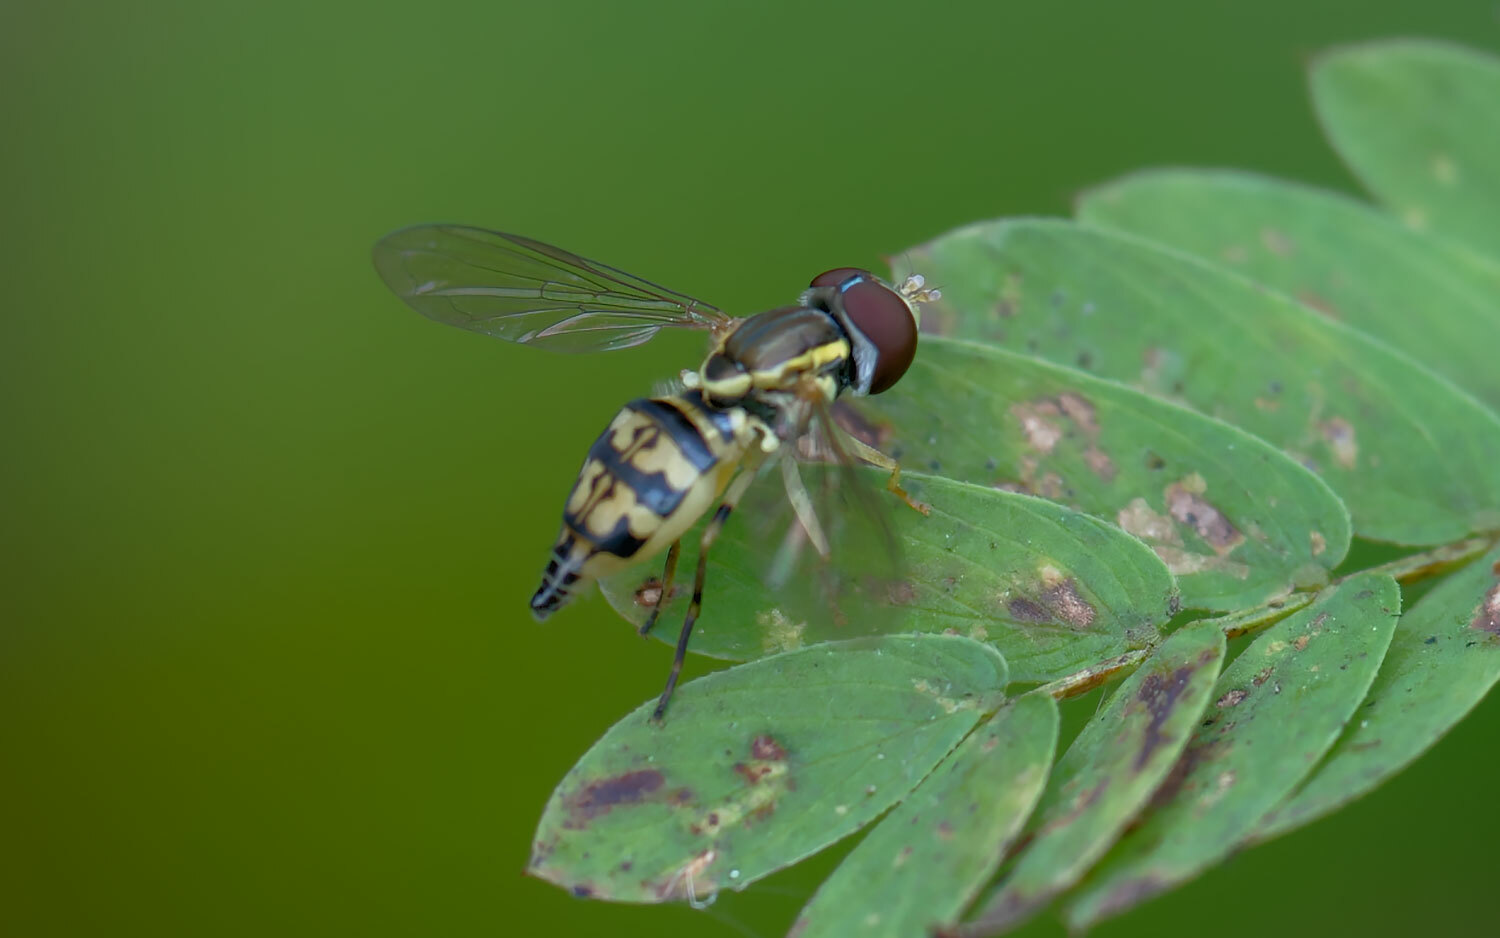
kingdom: Animalia
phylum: Arthropoda
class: Insecta
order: Diptera
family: Syrphidae
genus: Toxomerus
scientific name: Toxomerus geminatus
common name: Eastern calligrapher
